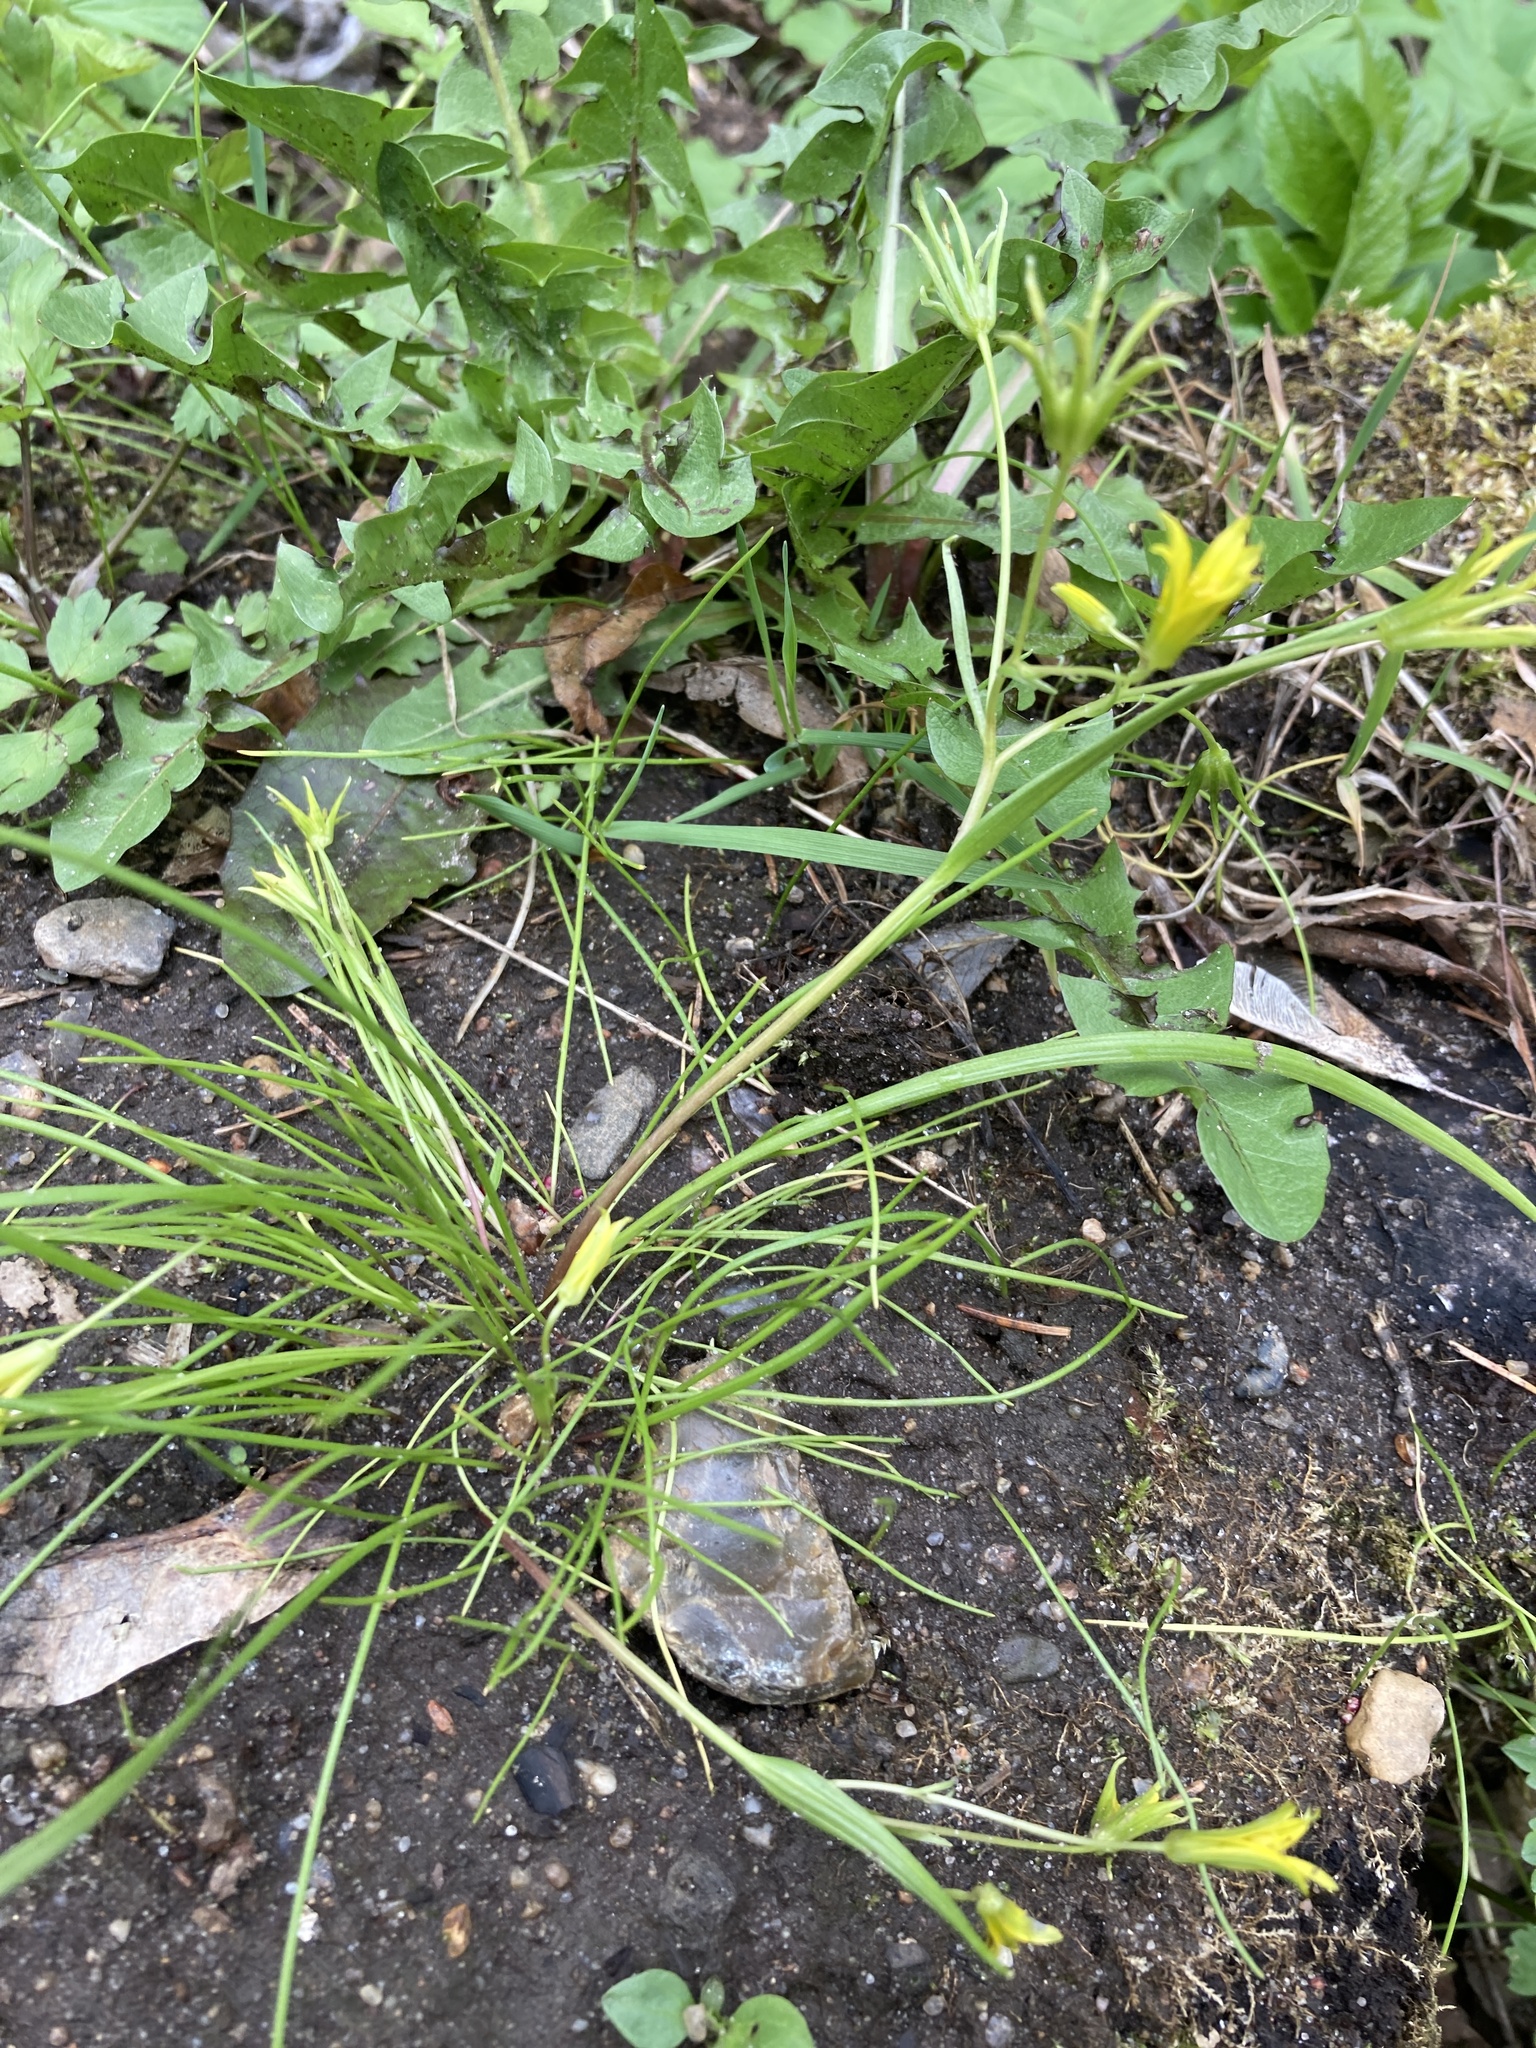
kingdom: Plantae
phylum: Tracheophyta
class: Liliopsida
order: Liliales
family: Liliaceae
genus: Gagea
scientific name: Gagea minima
